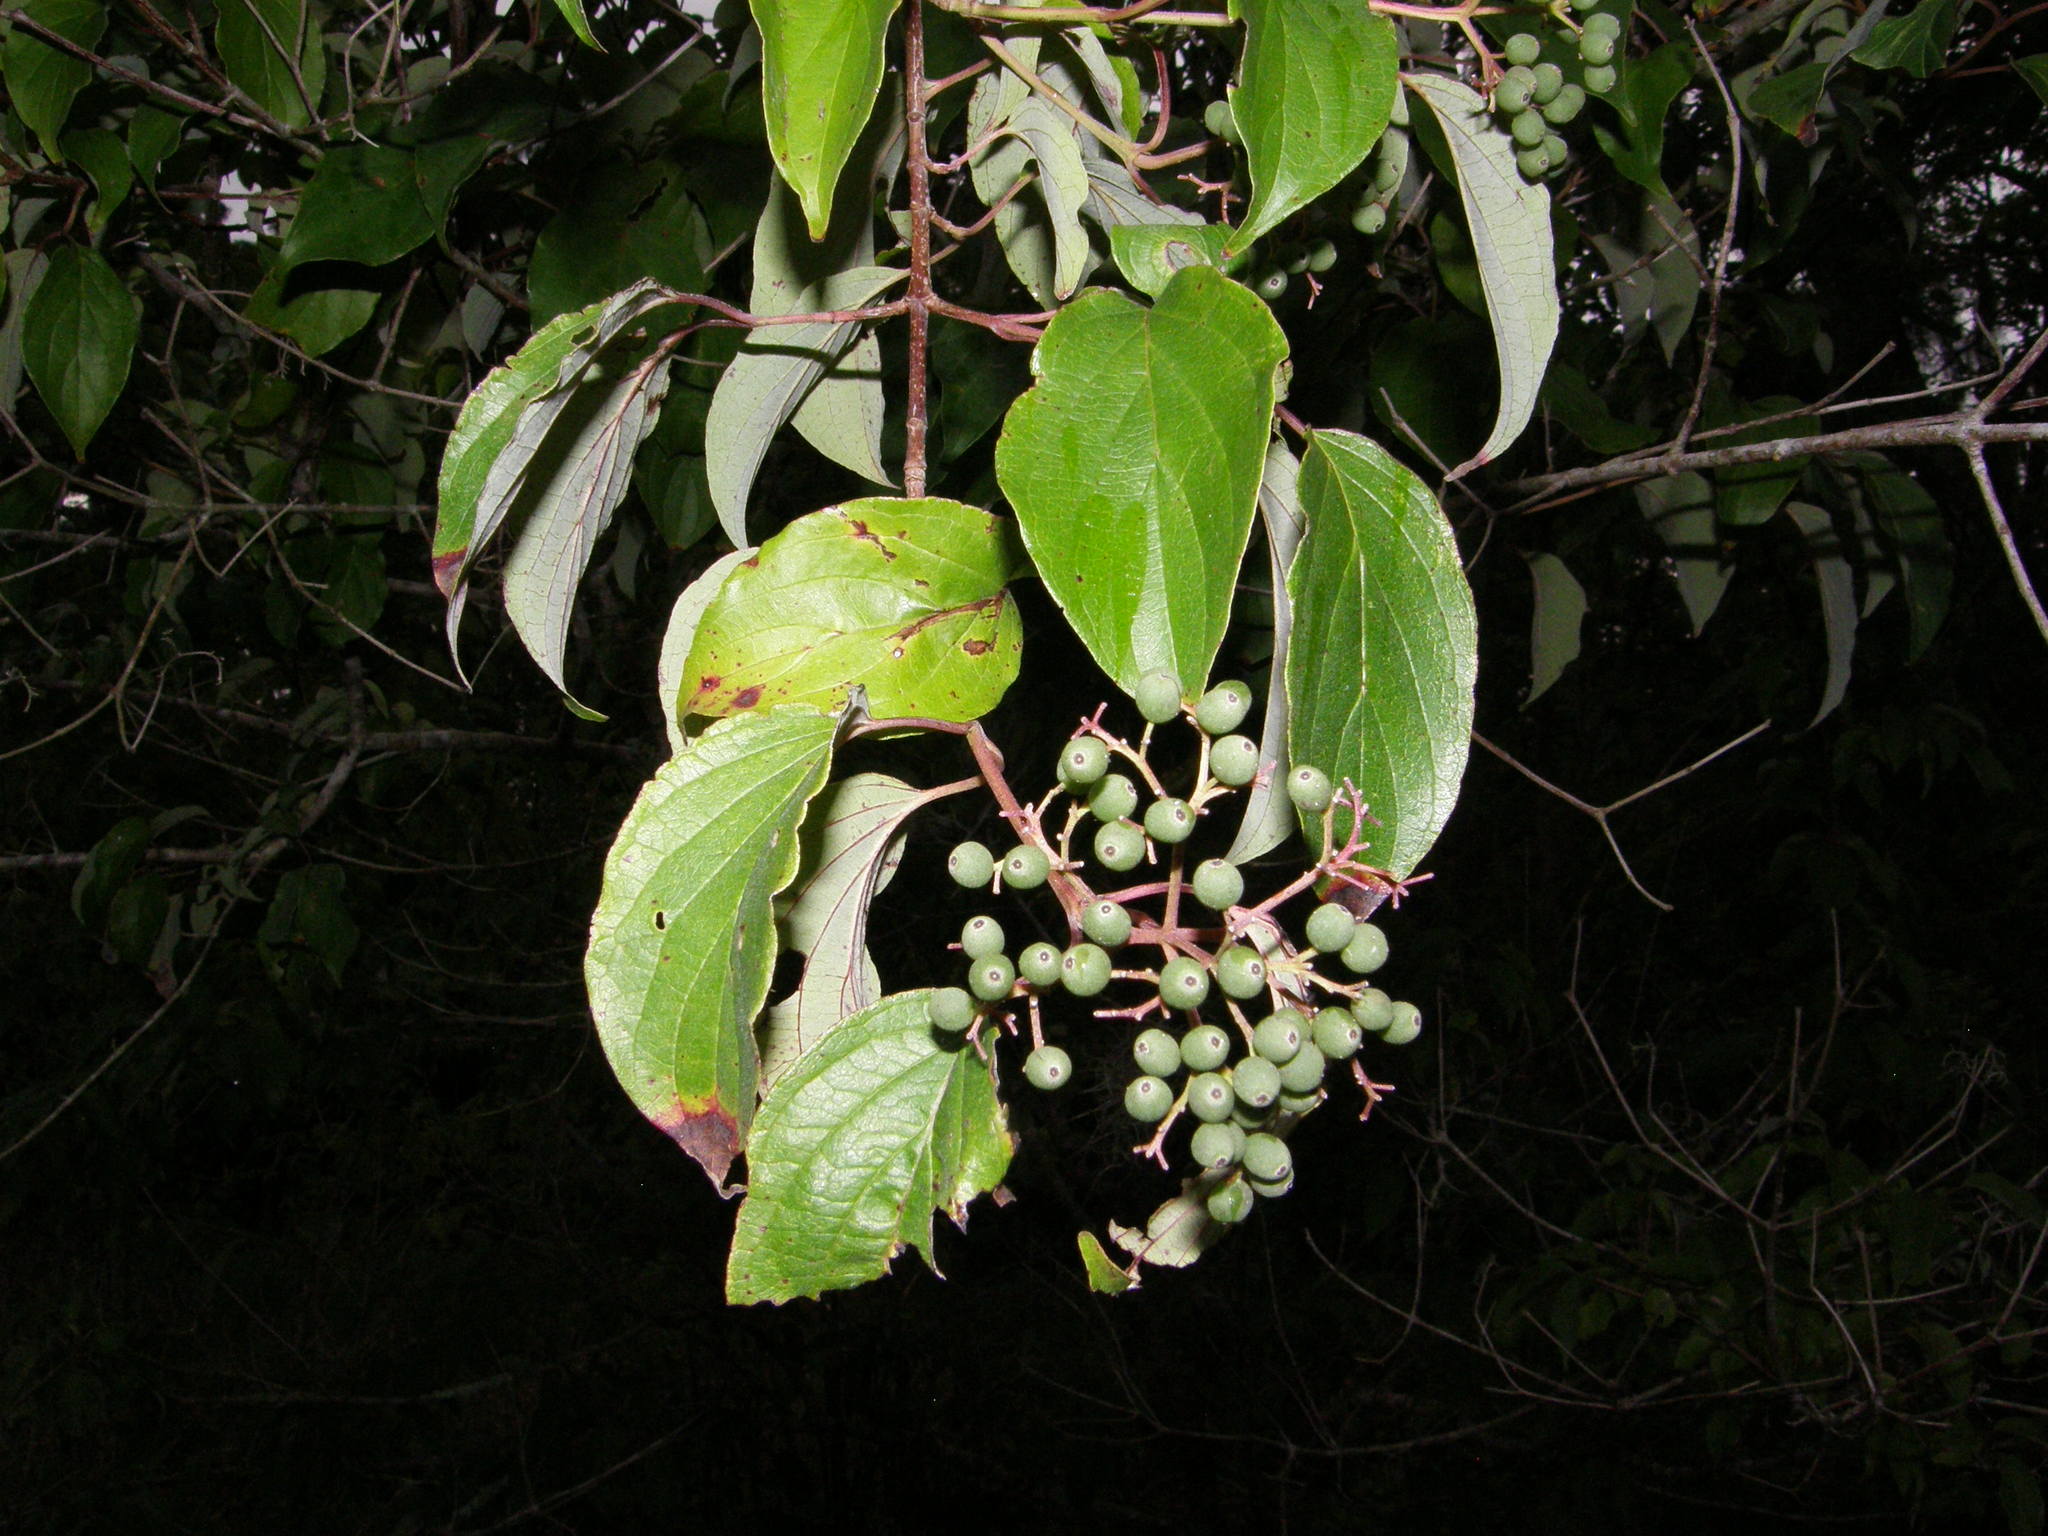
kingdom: Plantae
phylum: Tracheophyta
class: Magnoliopsida
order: Cornales
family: Cornaceae
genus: Cornus
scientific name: Cornus drummondii
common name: Rough-leaf dogwood
